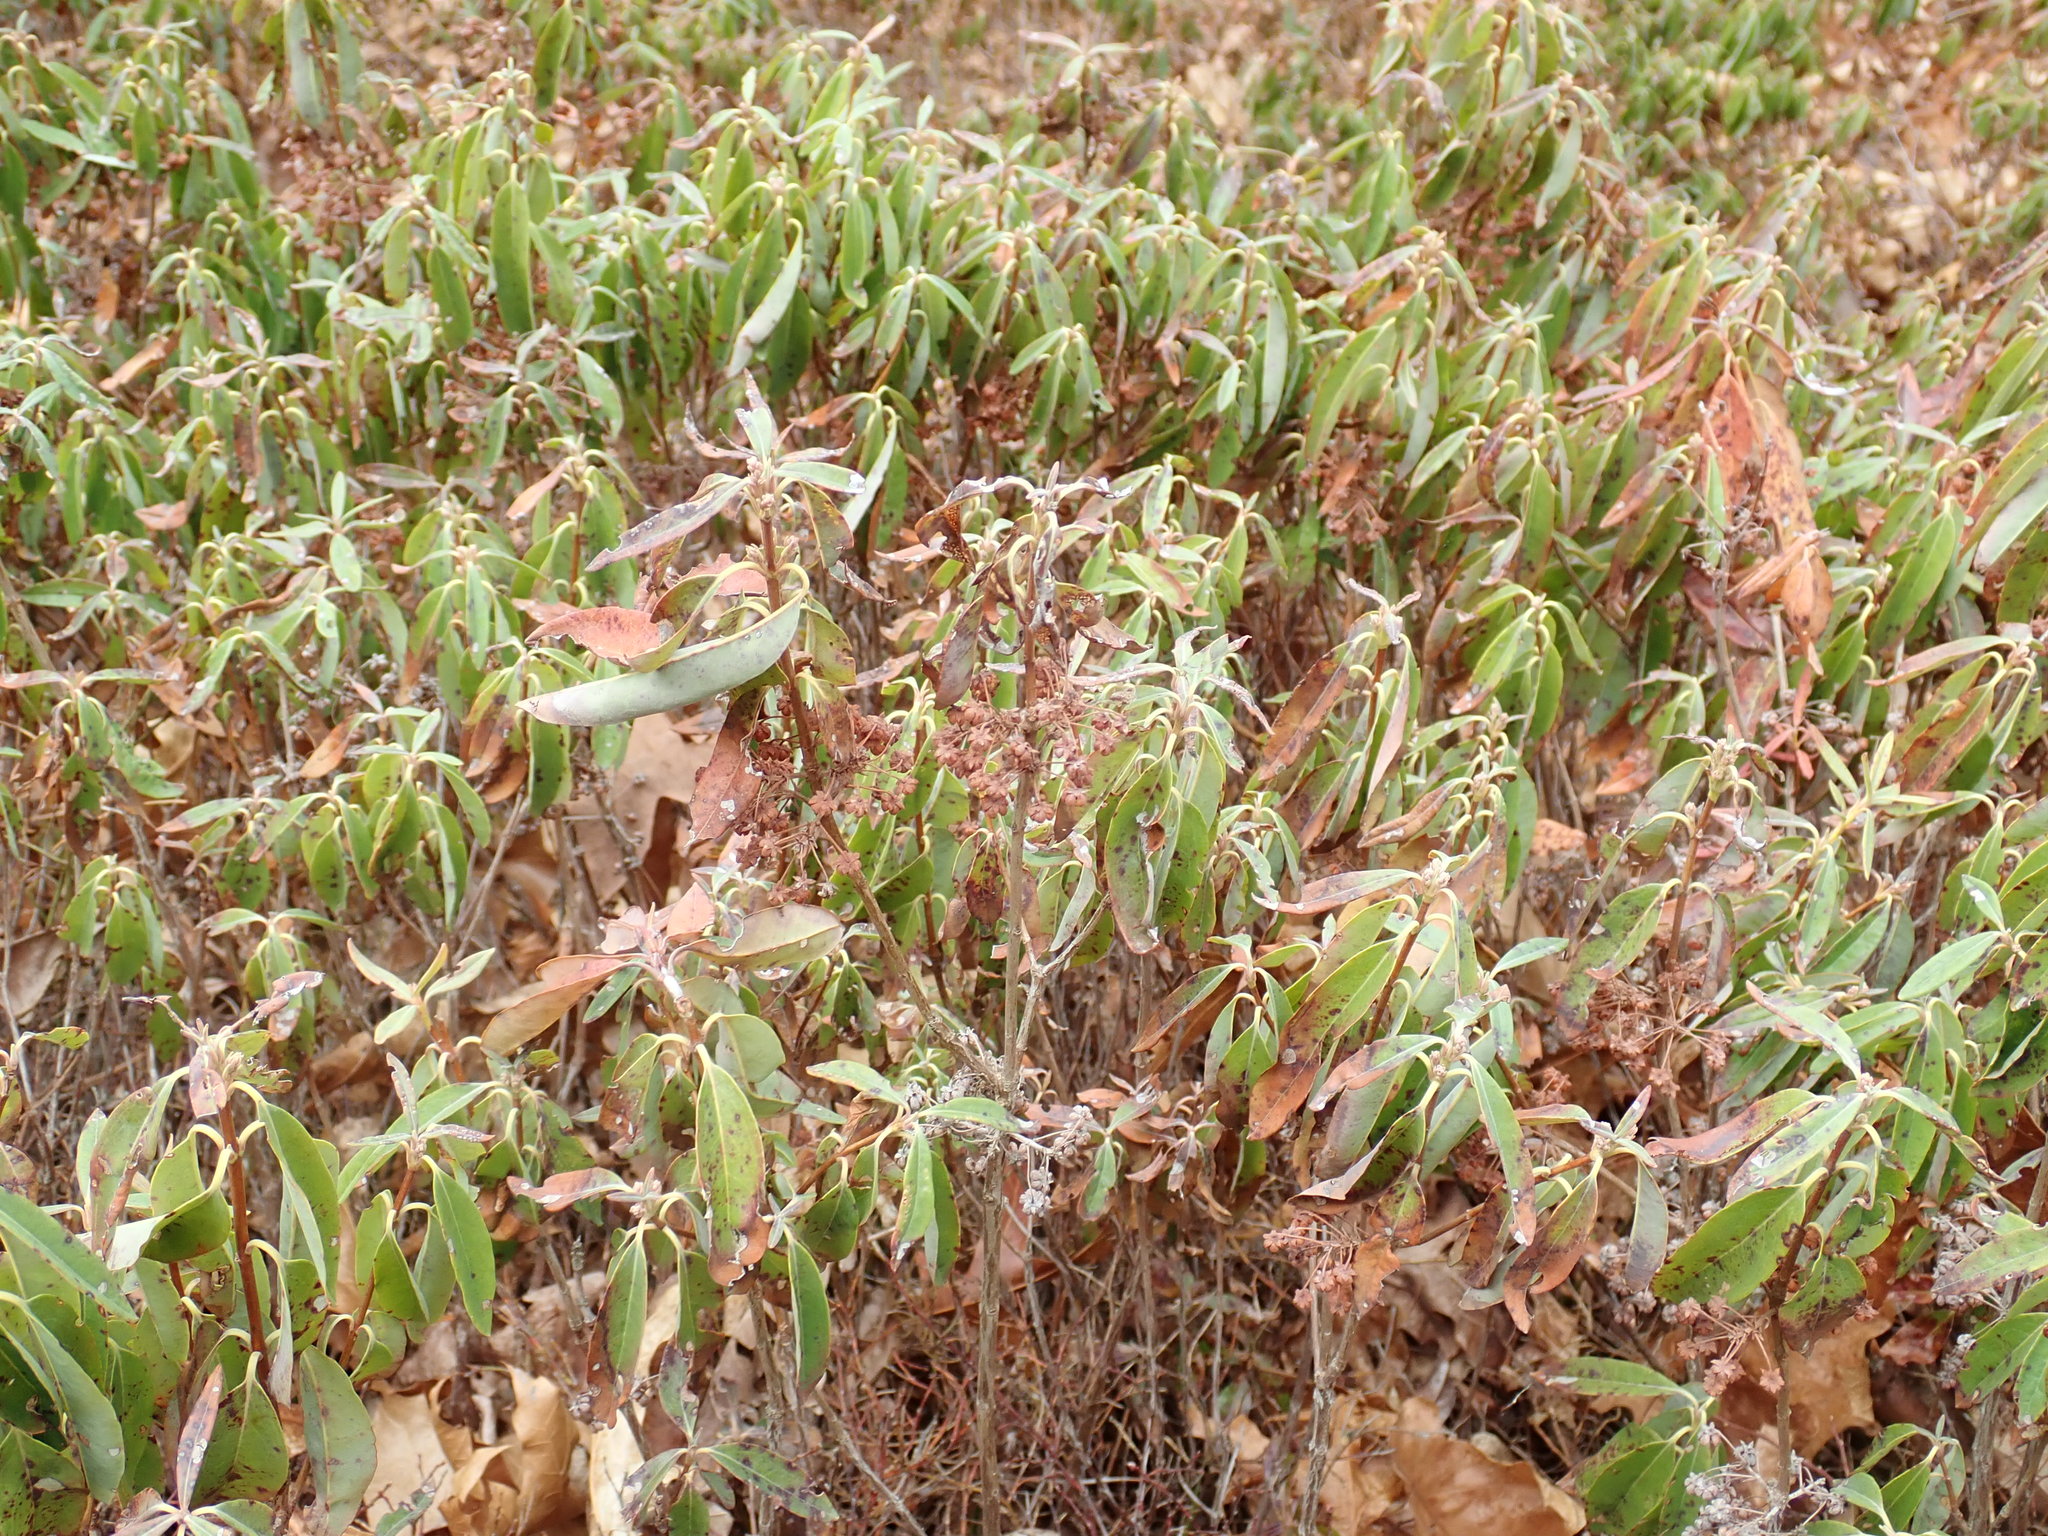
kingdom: Plantae
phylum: Tracheophyta
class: Magnoliopsida
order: Ericales
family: Ericaceae
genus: Kalmia
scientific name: Kalmia angustifolia
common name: Sheep-laurel
